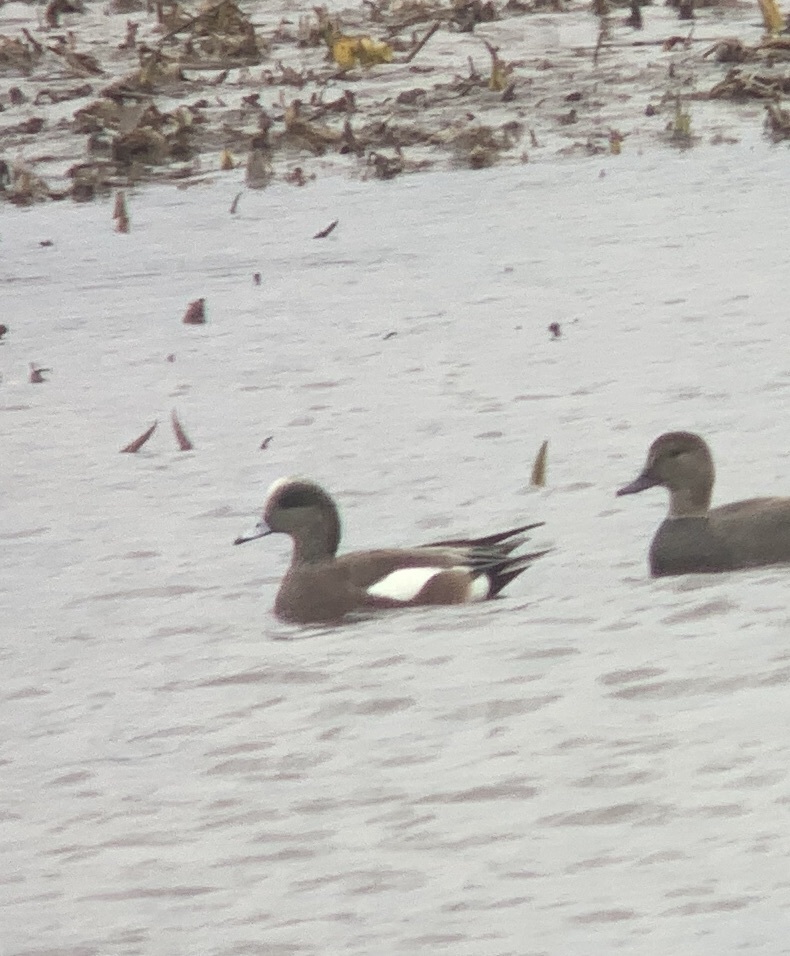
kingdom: Animalia
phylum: Chordata
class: Aves
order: Anseriformes
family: Anatidae
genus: Mareca
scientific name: Mareca americana
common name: American wigeon
